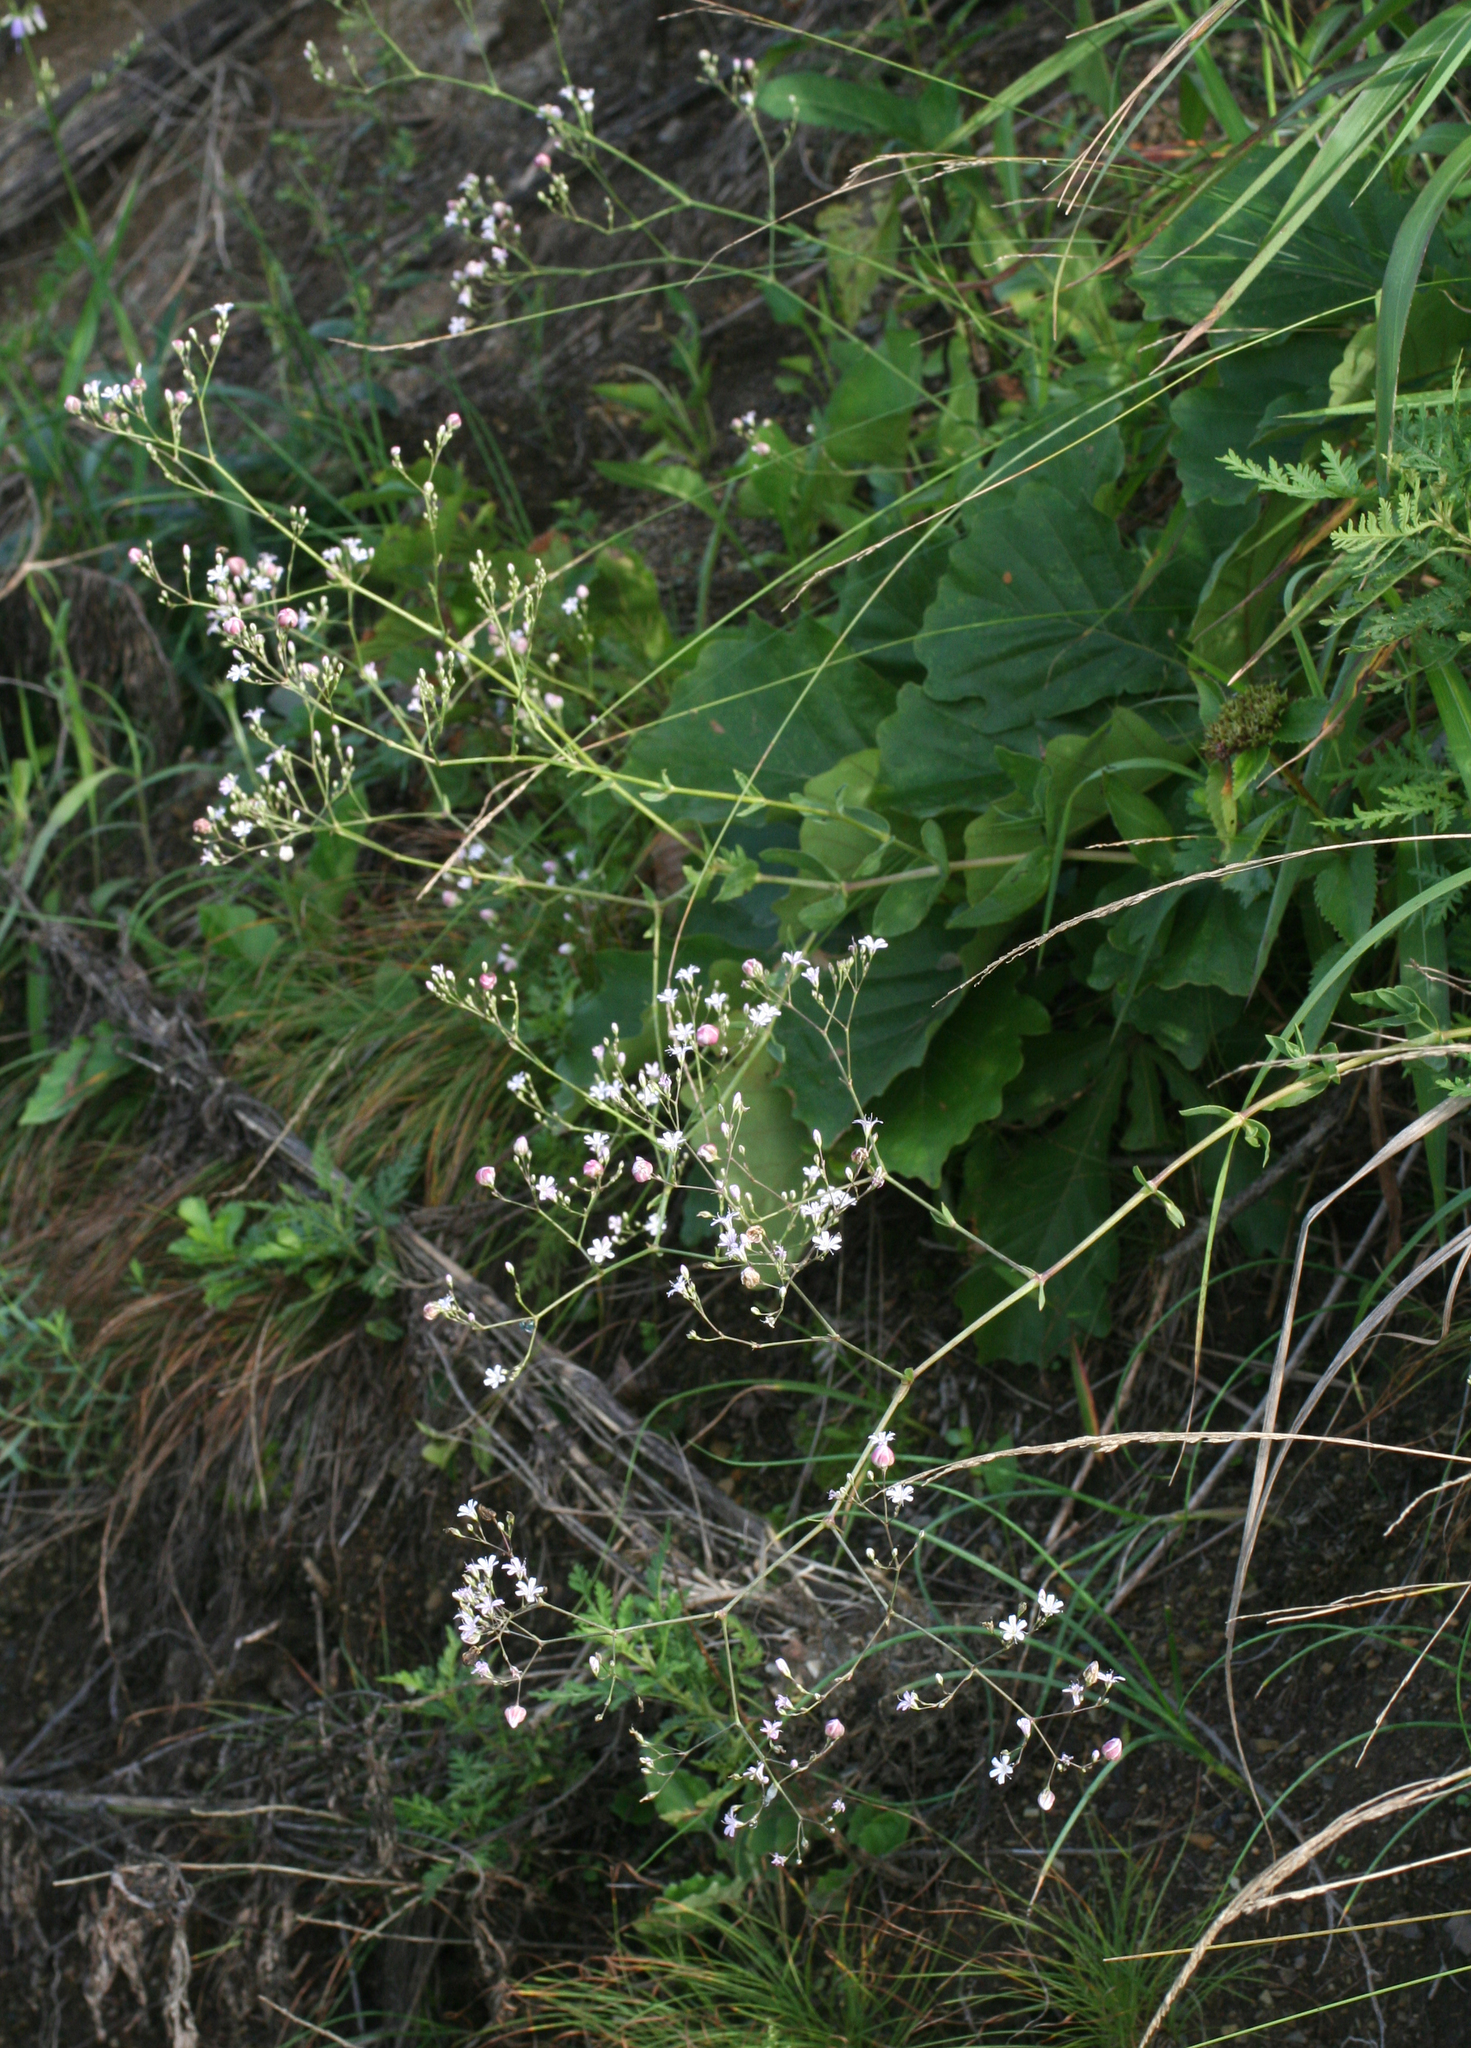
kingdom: Plantae
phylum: Tracheophyta
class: Magnoliopsida
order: Caryophyllales
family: Caryophyllaceae
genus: Gypsophila
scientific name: Gypsophila pacifica
